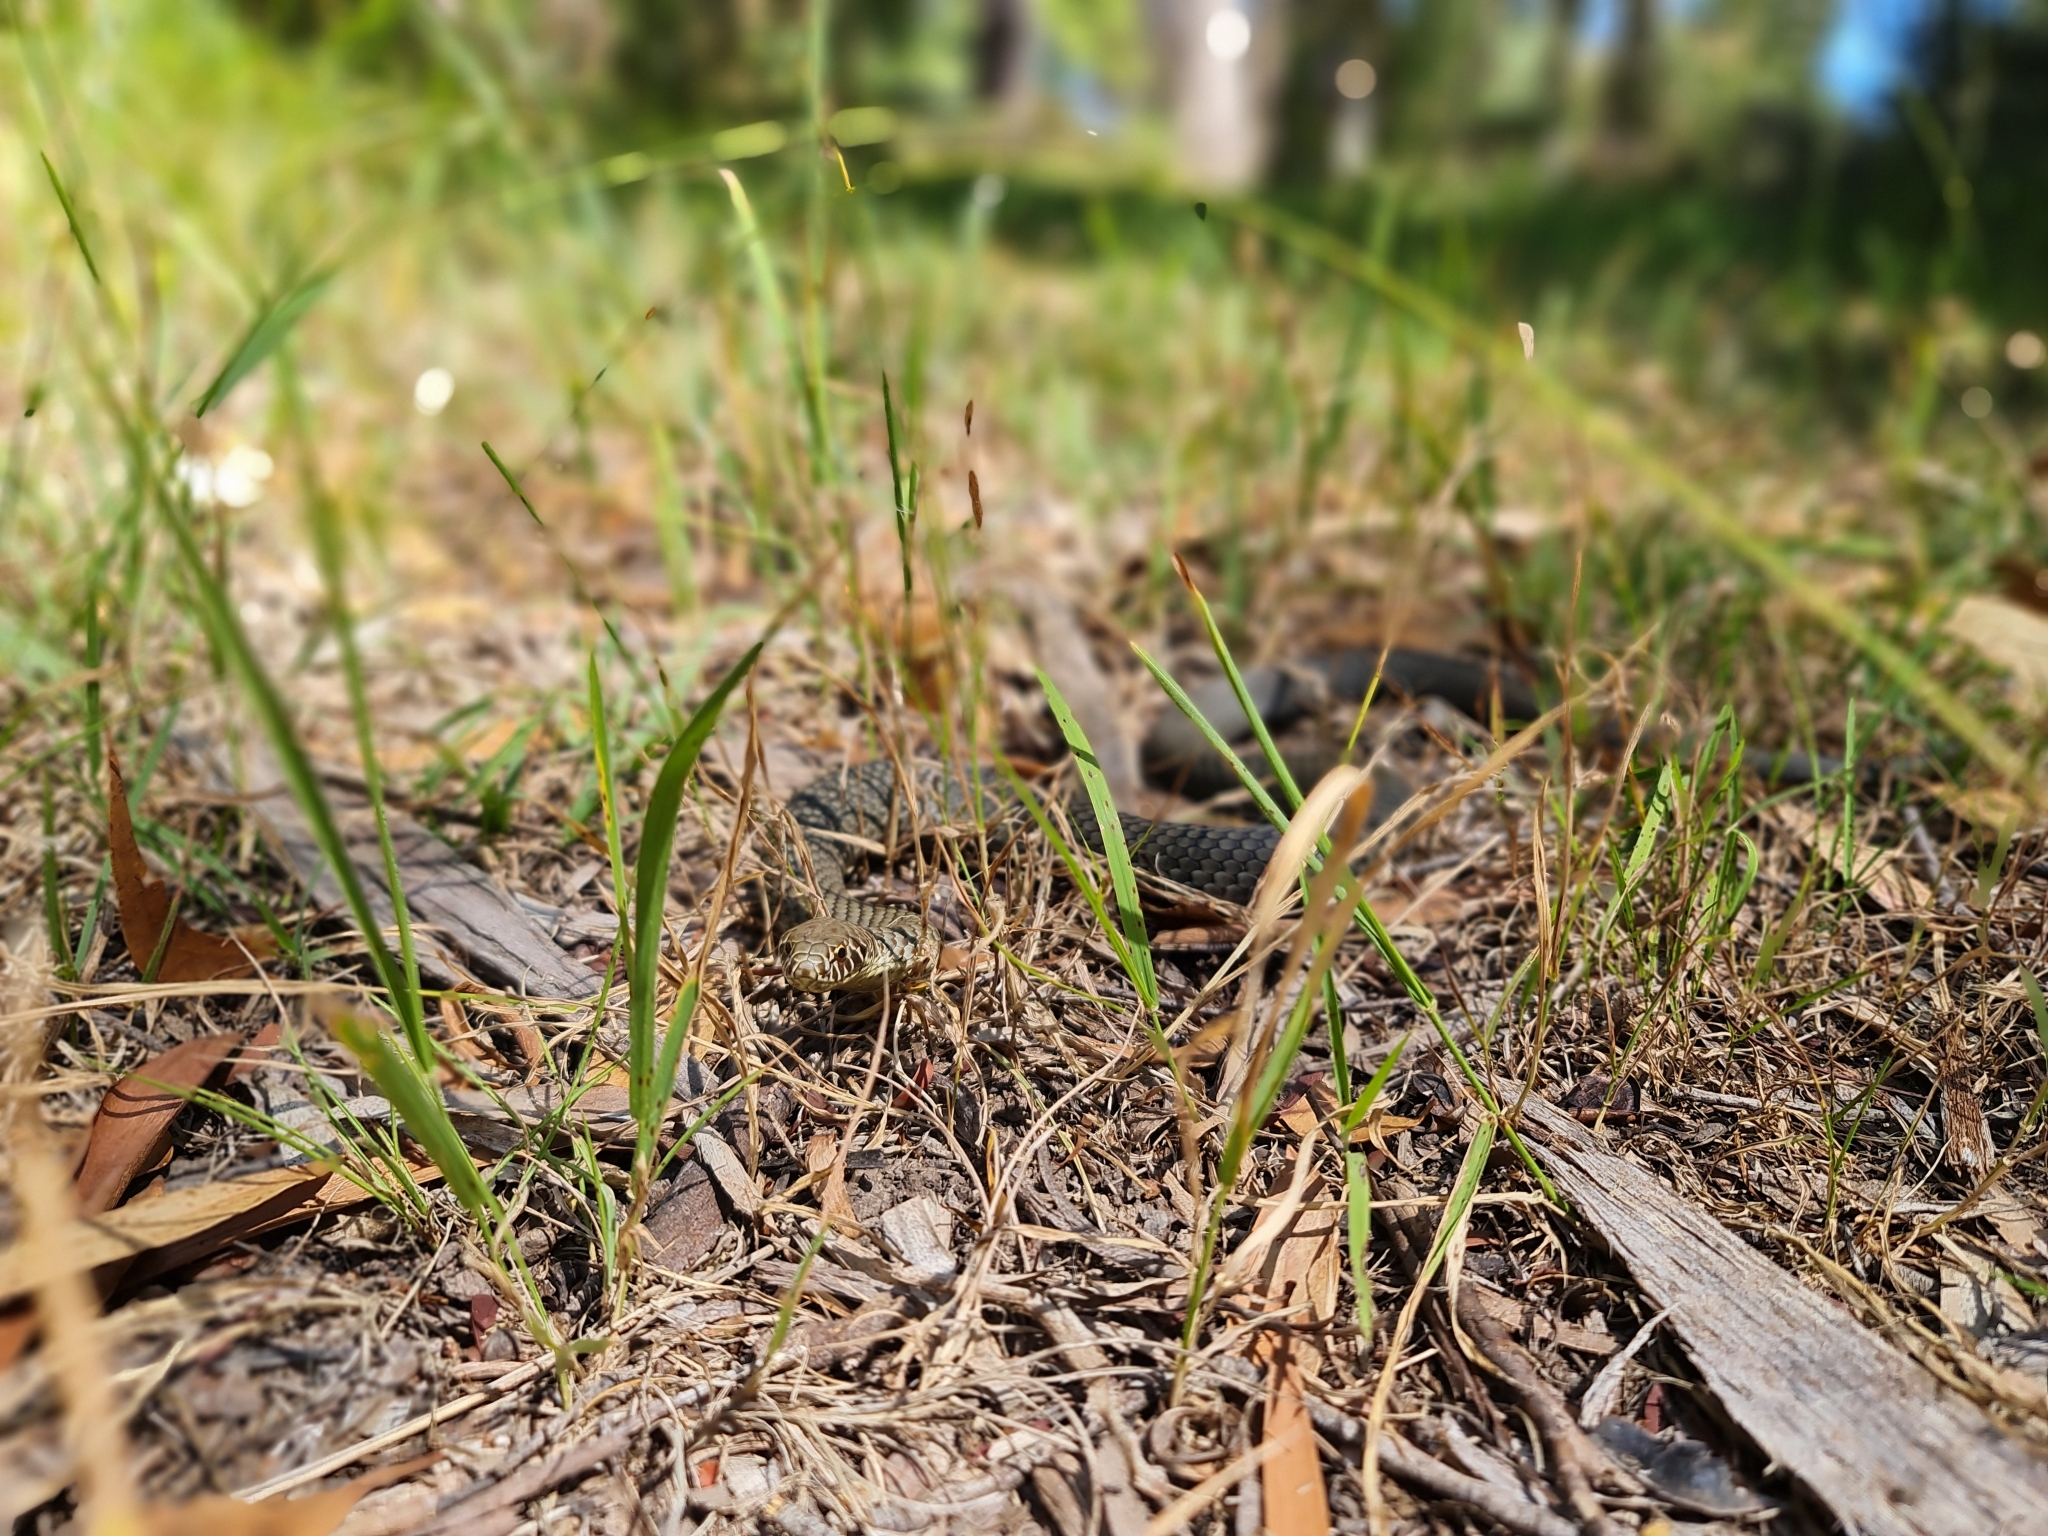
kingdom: Animalia
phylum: Chordata
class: Squamata
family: Elapidae
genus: Austrelaps
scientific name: Austrelaps labialis
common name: Pygmy copperhead
